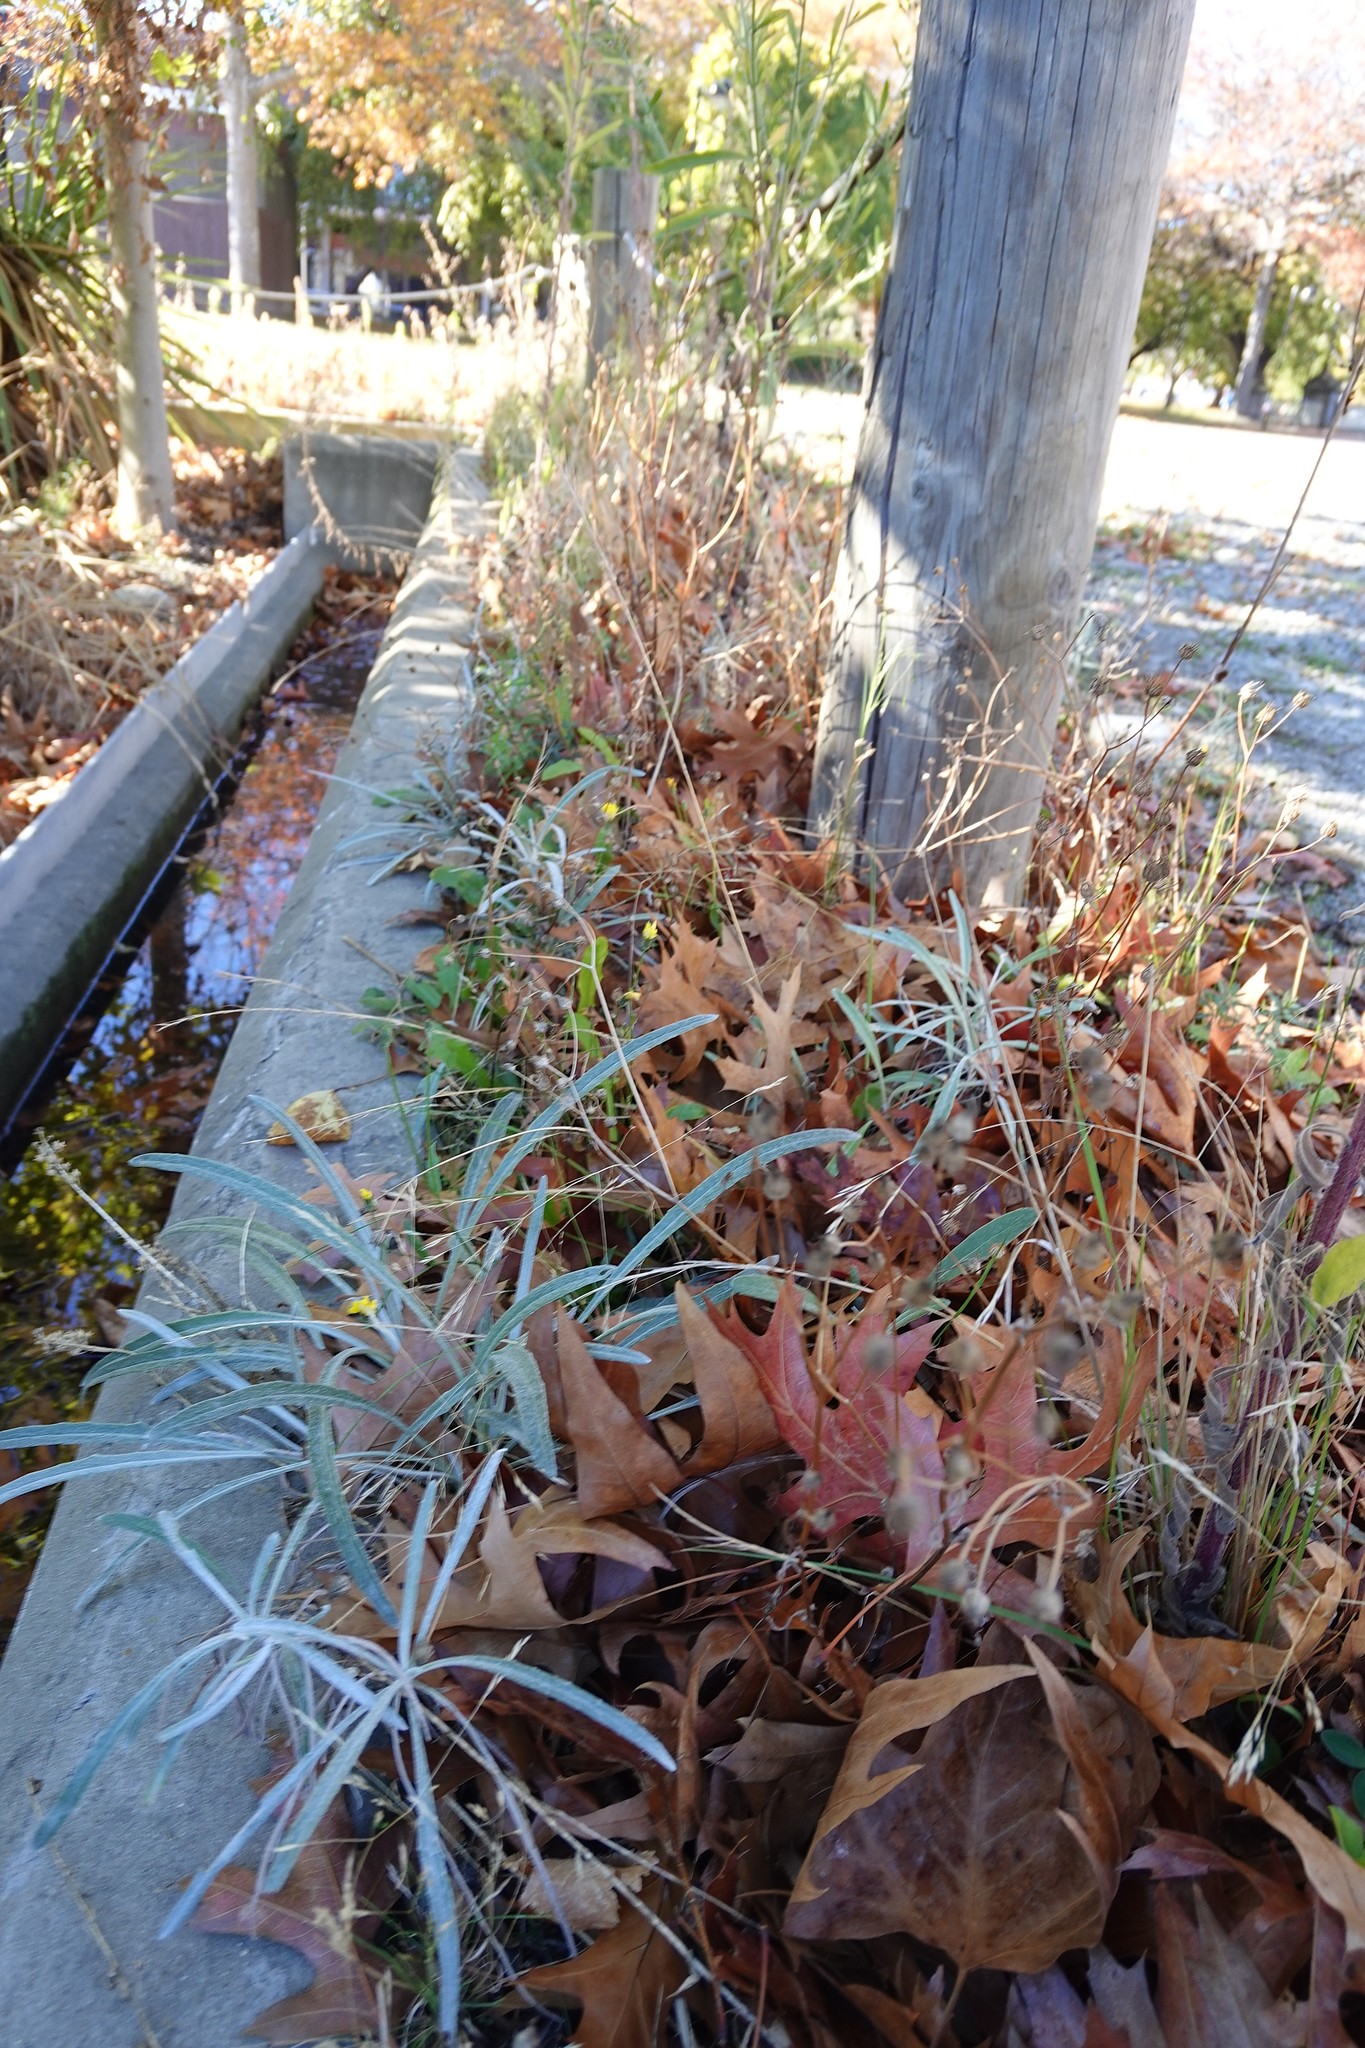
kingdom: Plantae
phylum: Tracheophyta
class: Magnoliopsida
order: Asterales
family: Asteraceae
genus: Senecio
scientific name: Senecio quadridentatus
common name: Cotton fireweed
